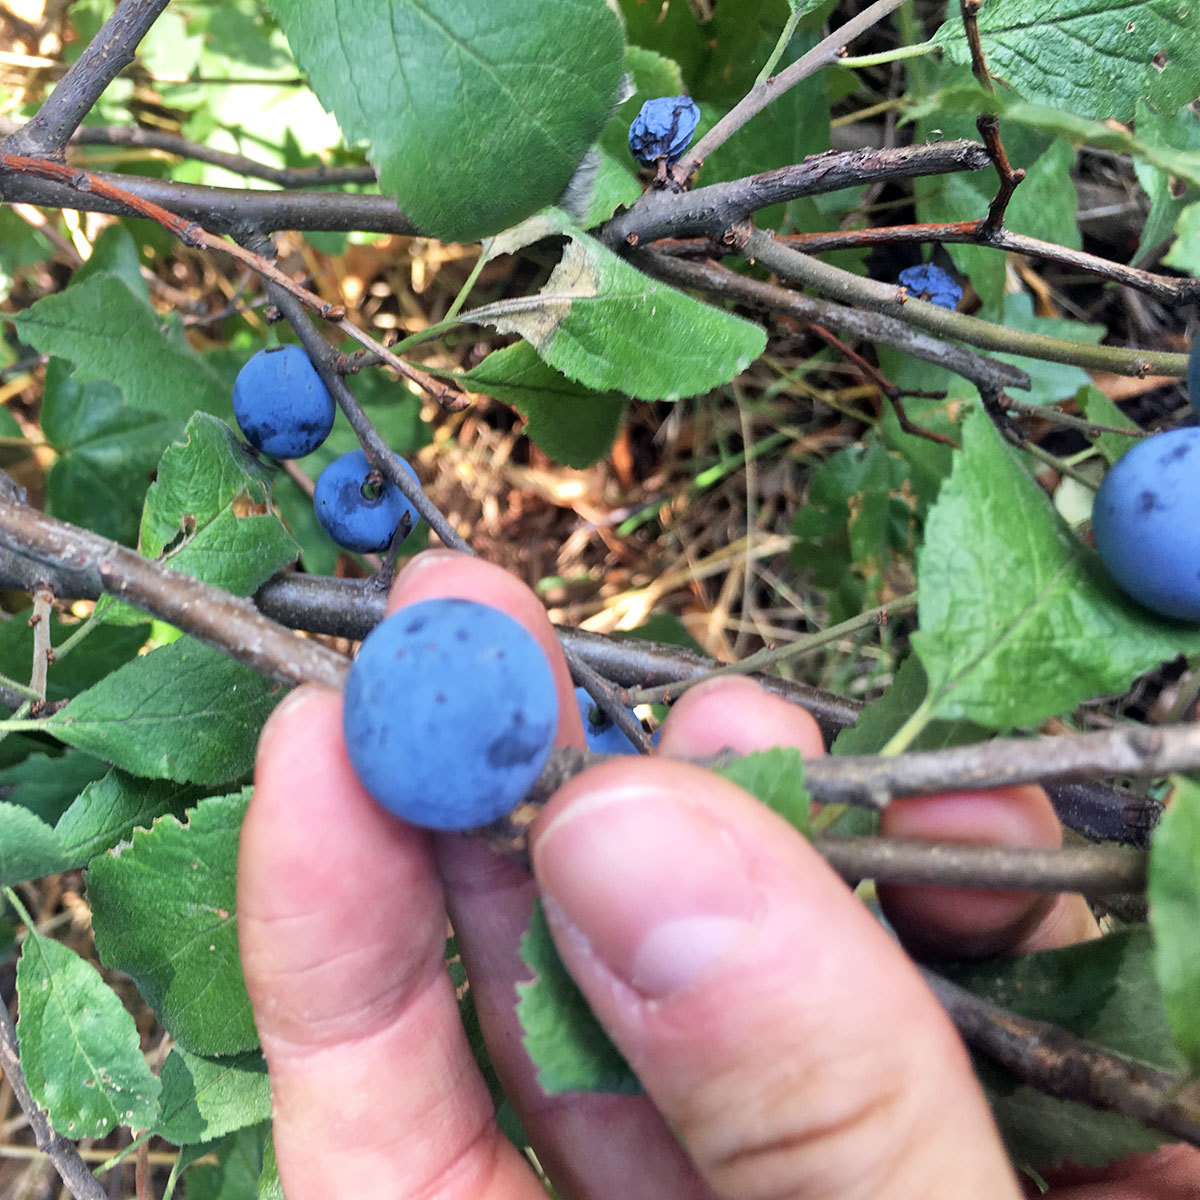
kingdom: Plantae
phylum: Tracheophyta
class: Magnoliopsida
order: Rosales
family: Rosaceae
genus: Prunus
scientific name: Prunus spinosa
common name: Blackthorn
